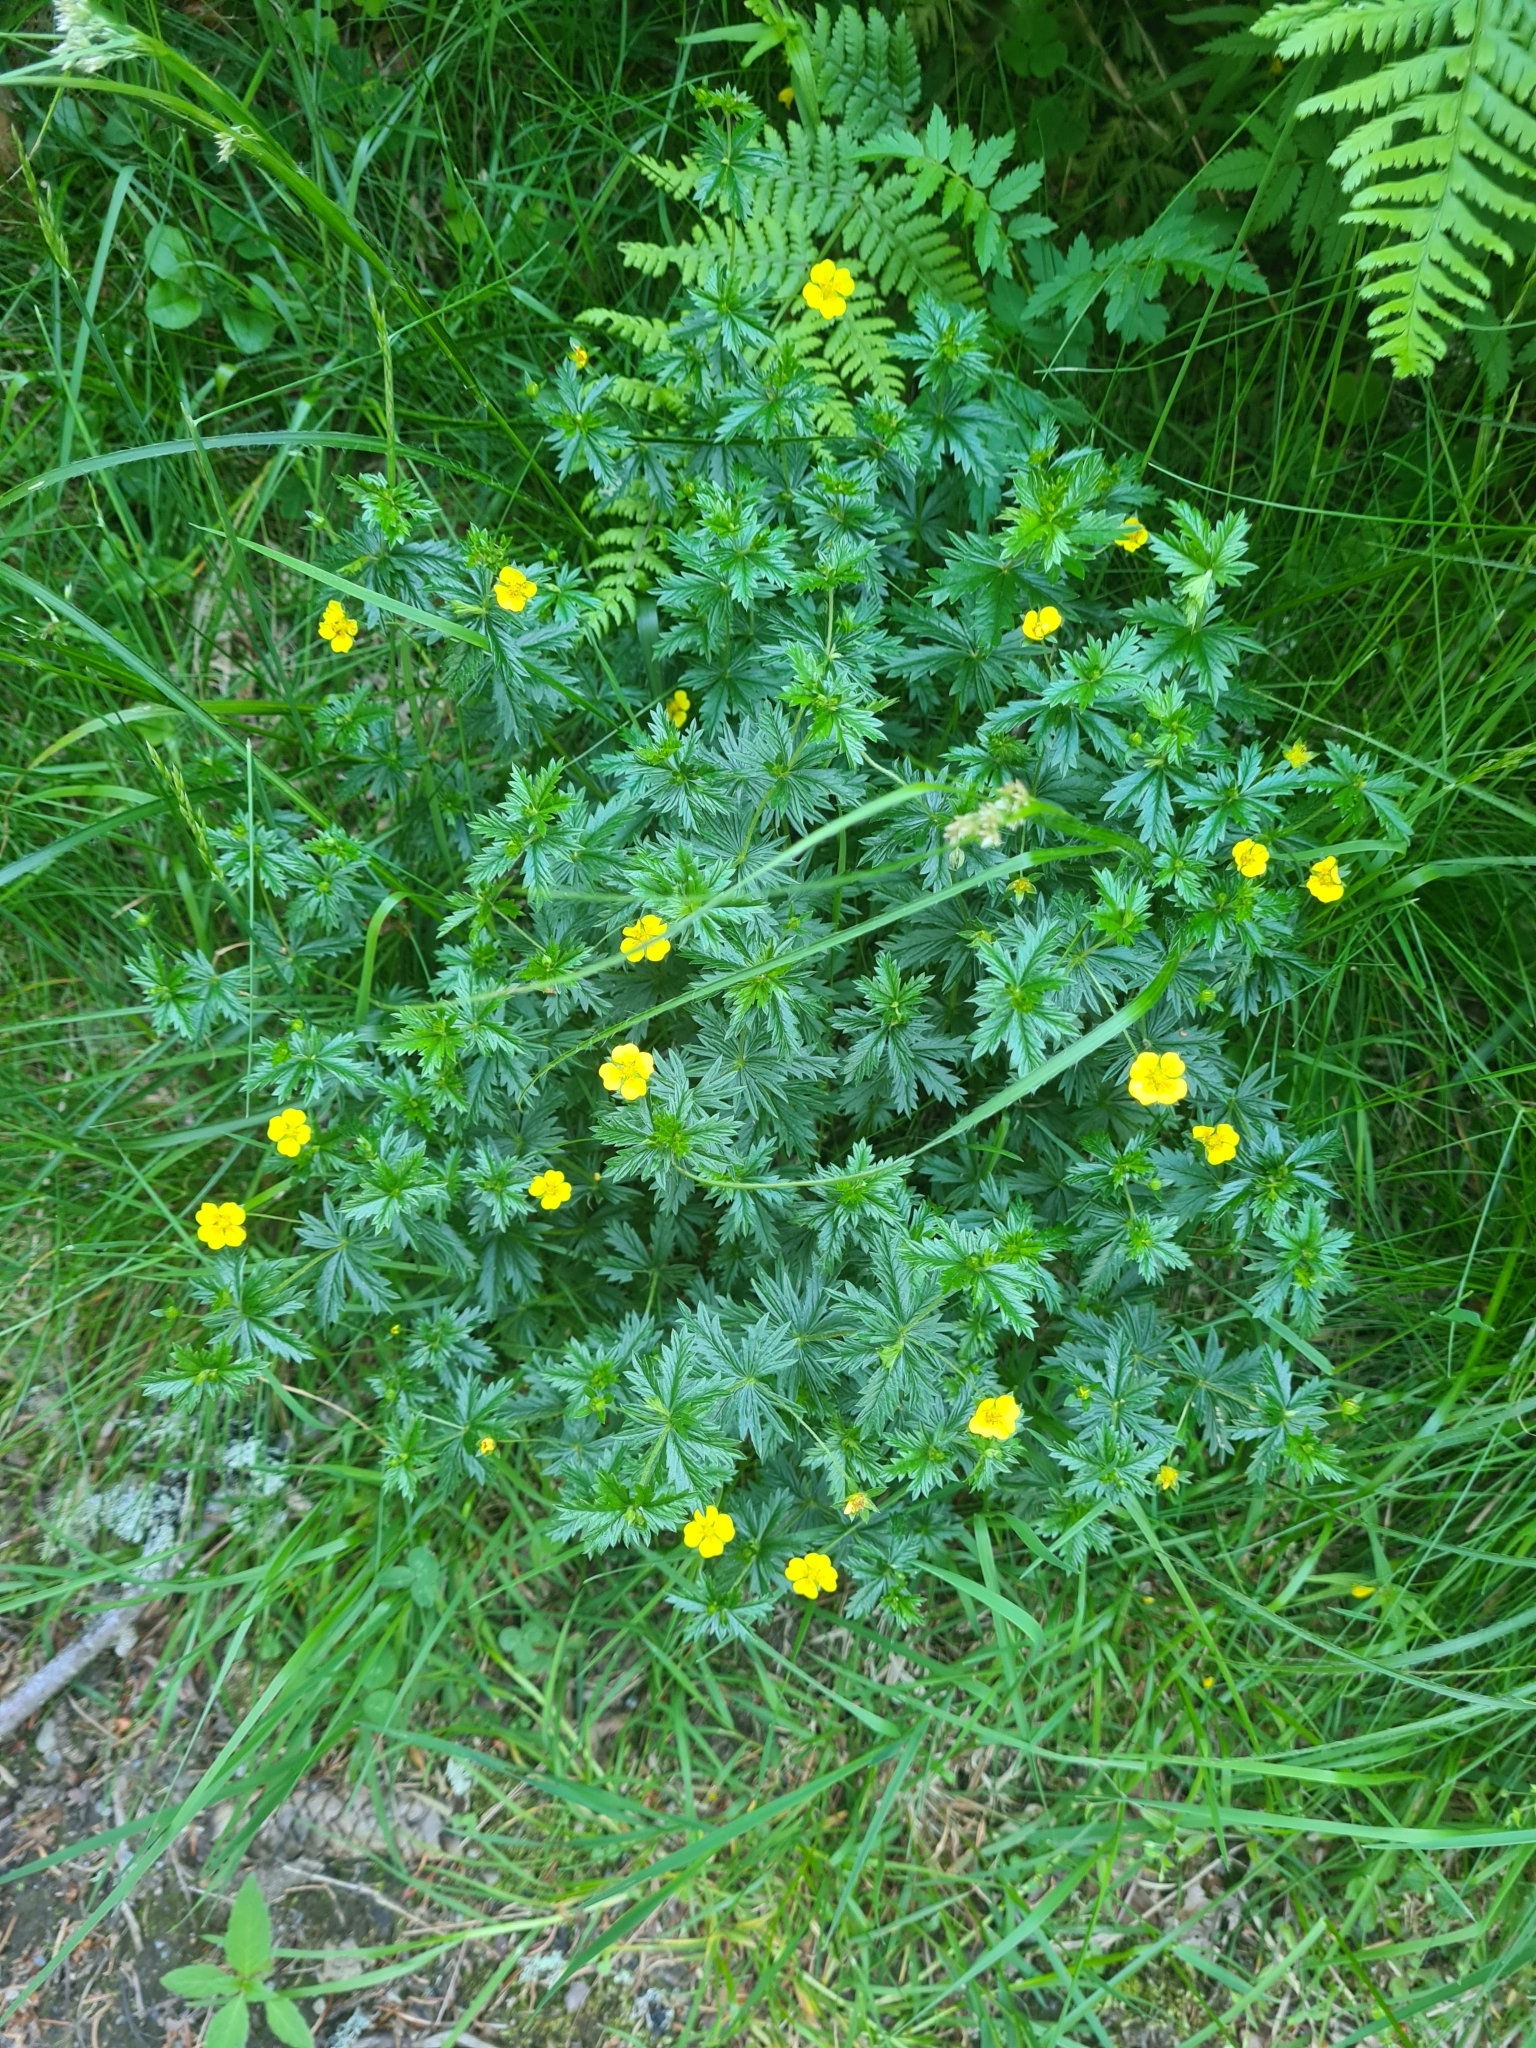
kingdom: Plantae
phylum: Tracheophyta
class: Magnoliopsida
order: Rosales
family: Rosaceae
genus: Potentilla
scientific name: Potentilla erecta
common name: Tormentil
